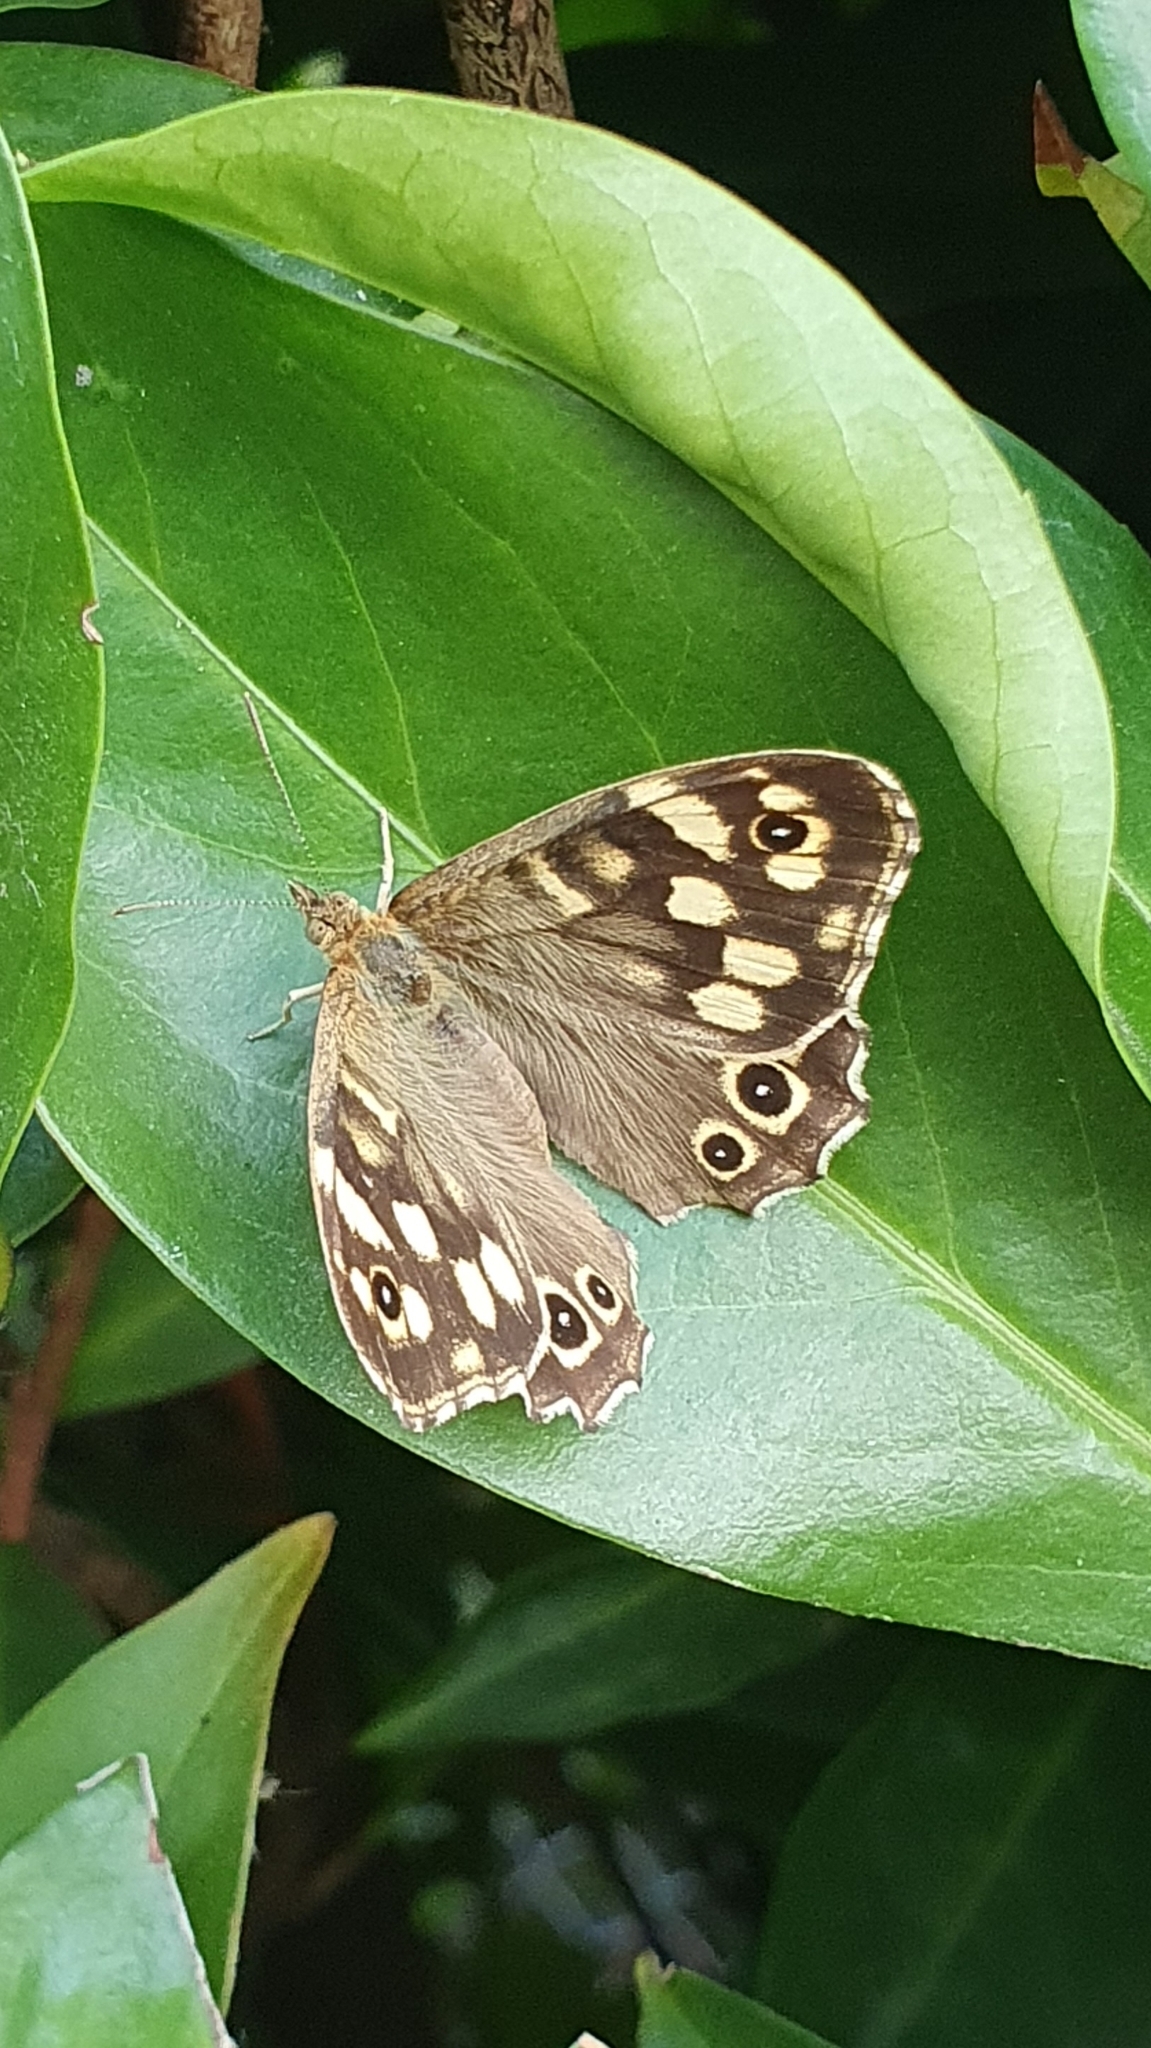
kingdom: Animalia
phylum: Arthropoda
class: Insecta
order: Lepidoptera
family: Nymphalidae
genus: Pararge
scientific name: Pararge aegeria
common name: Speckled wood
